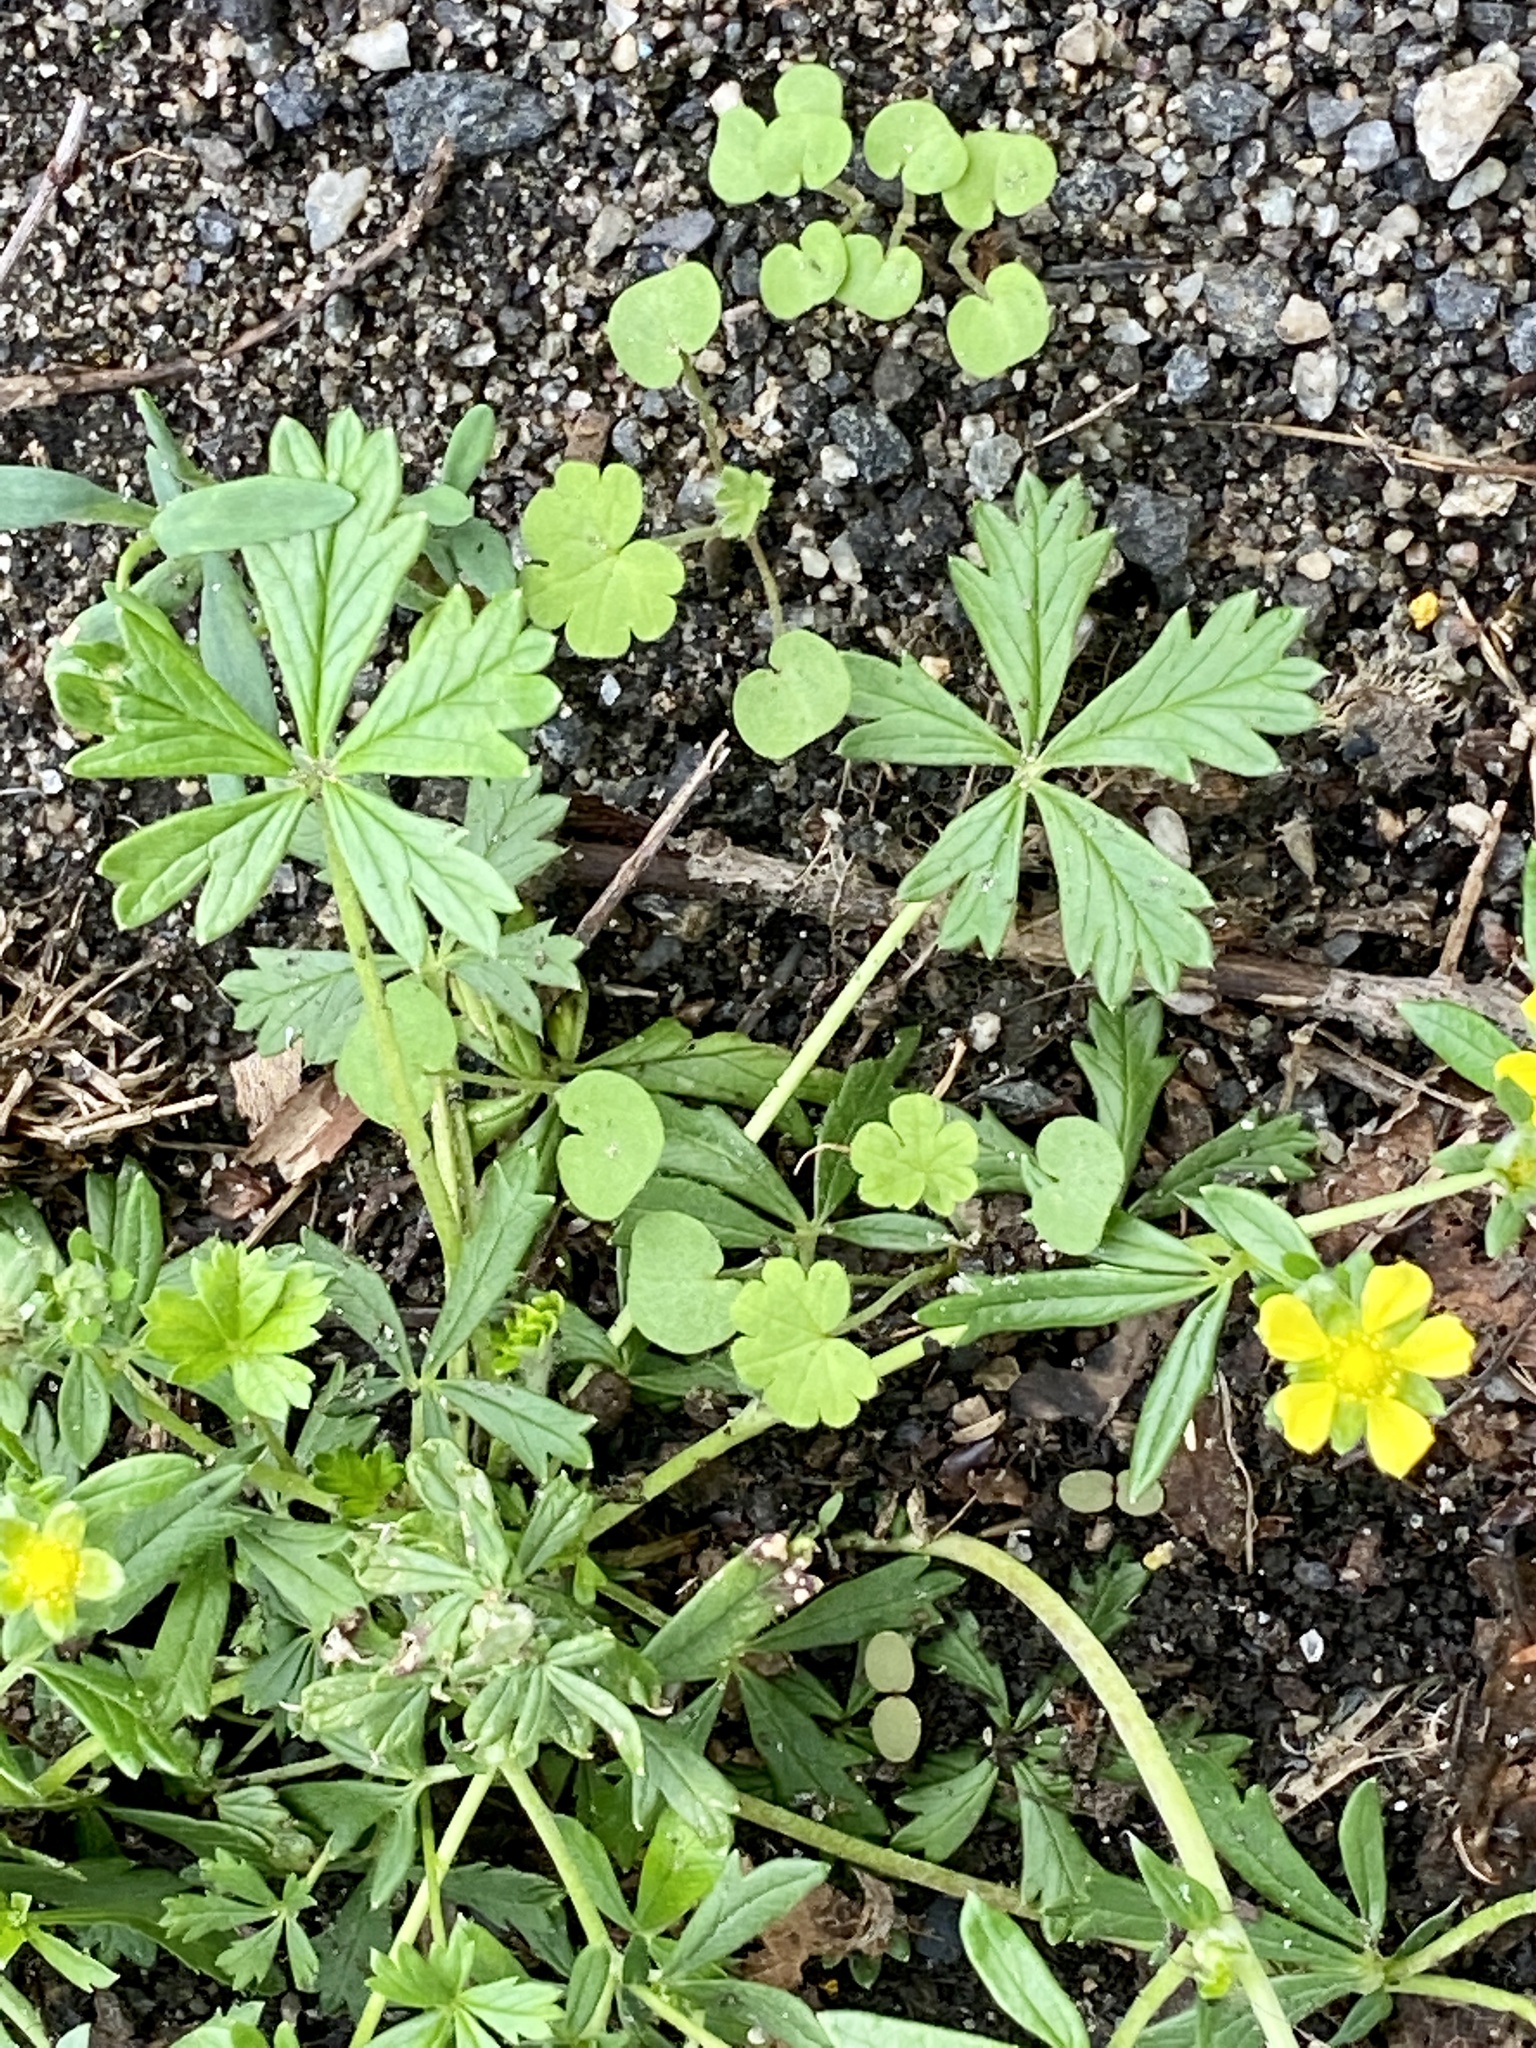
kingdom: Plantae
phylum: Tracheophyta
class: Magnoliopsida
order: Rosales
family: Rosaceae
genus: Potentilla
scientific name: Potentilla argentea
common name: Hoary cinquefoil
